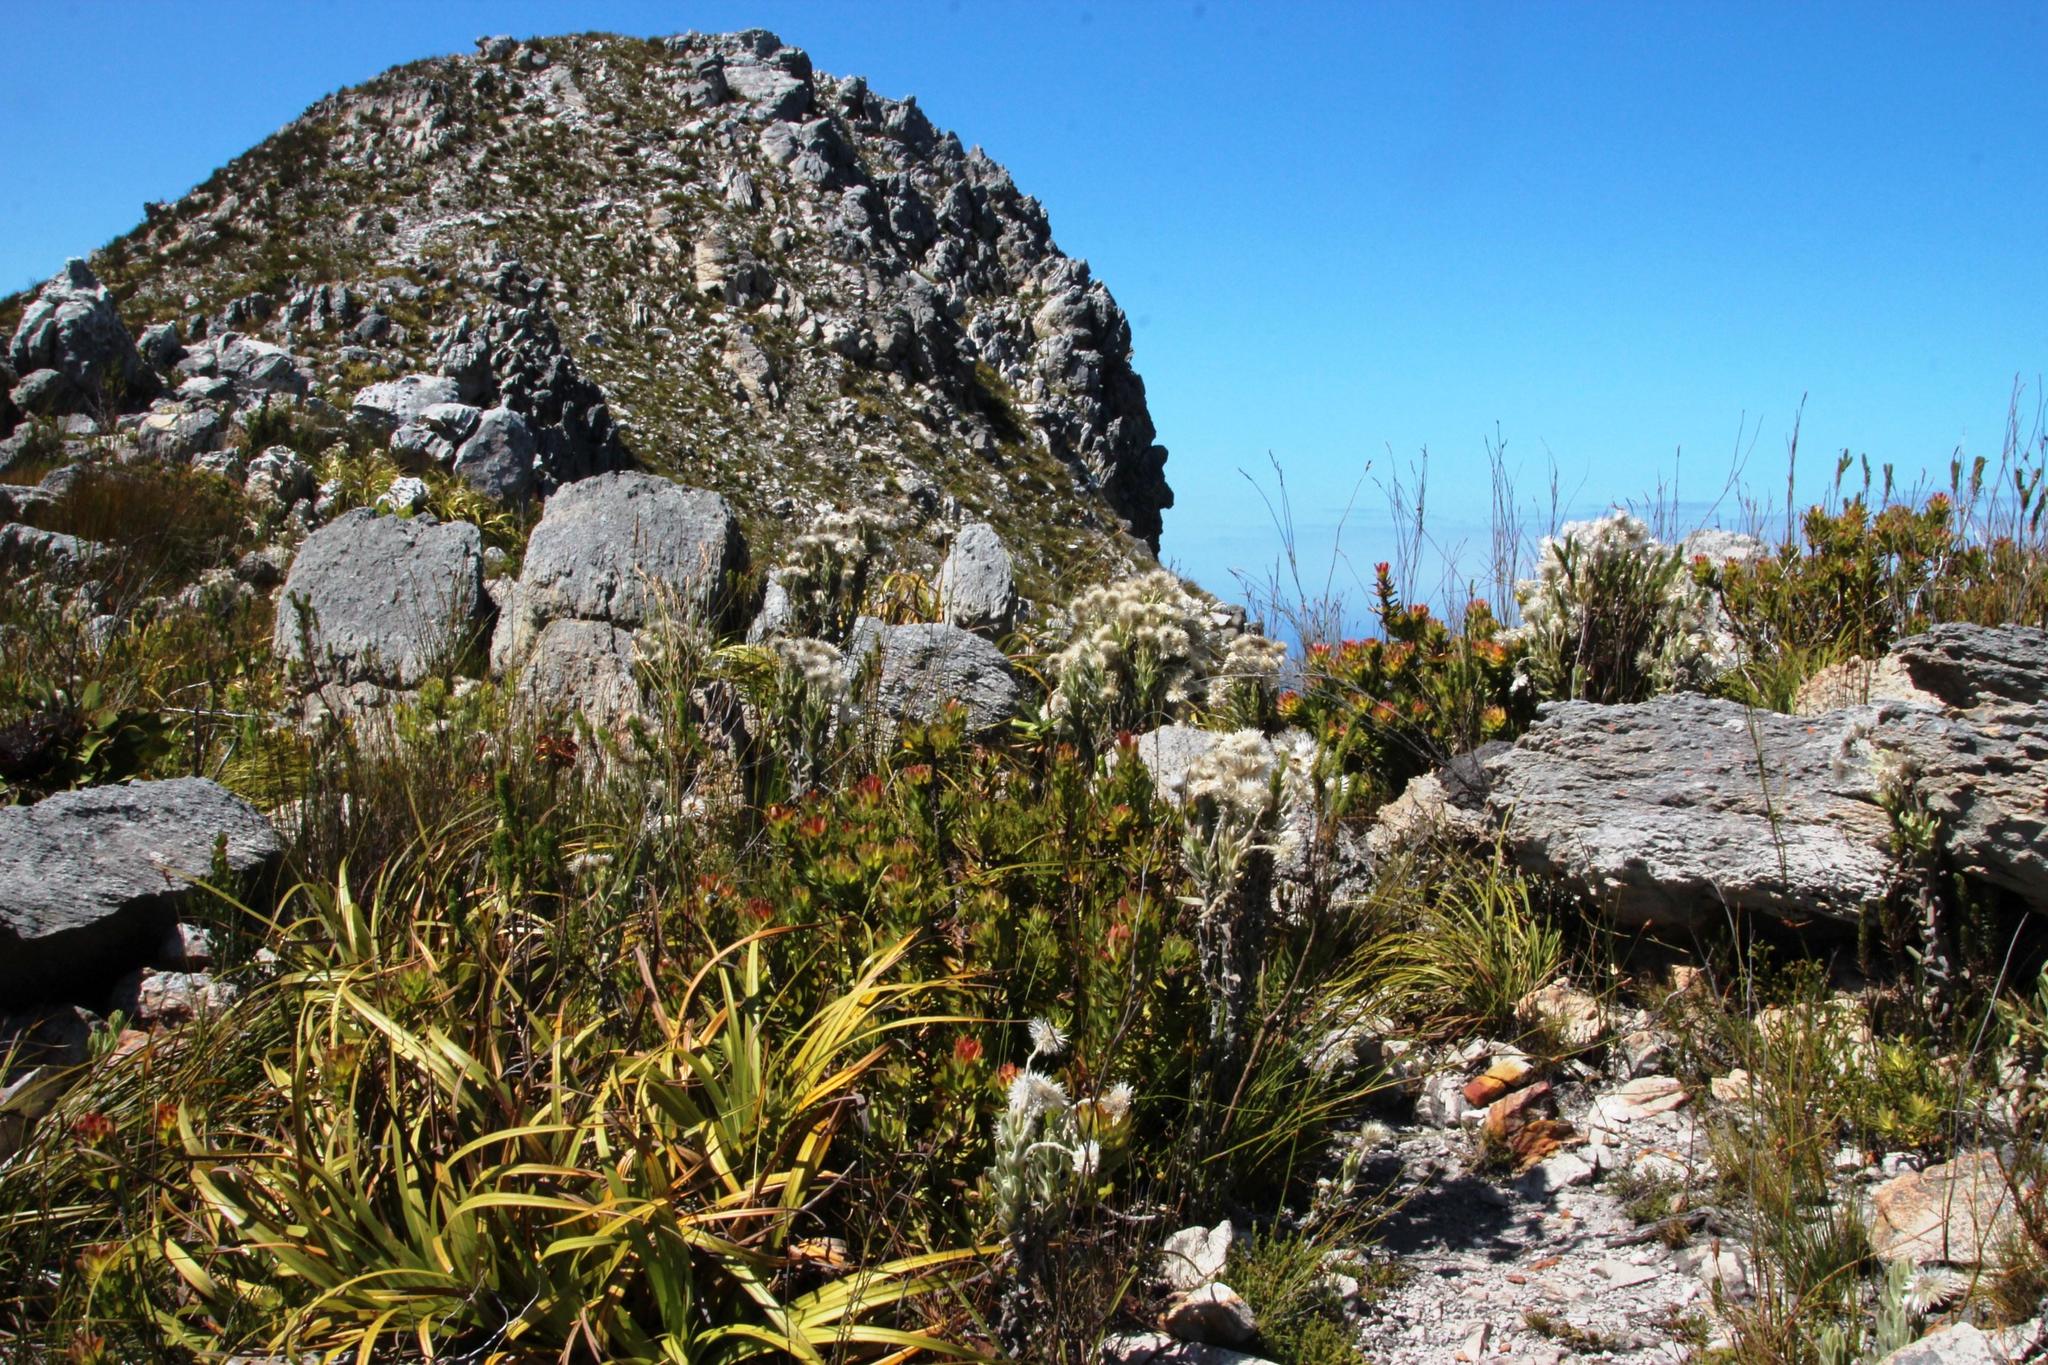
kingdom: Plantae
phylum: Tracheophyta
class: Magnoliopsida
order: Proteales
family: Proteaceae
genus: Mimetes
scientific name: Mimetes cucullatus
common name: Common pagoda
